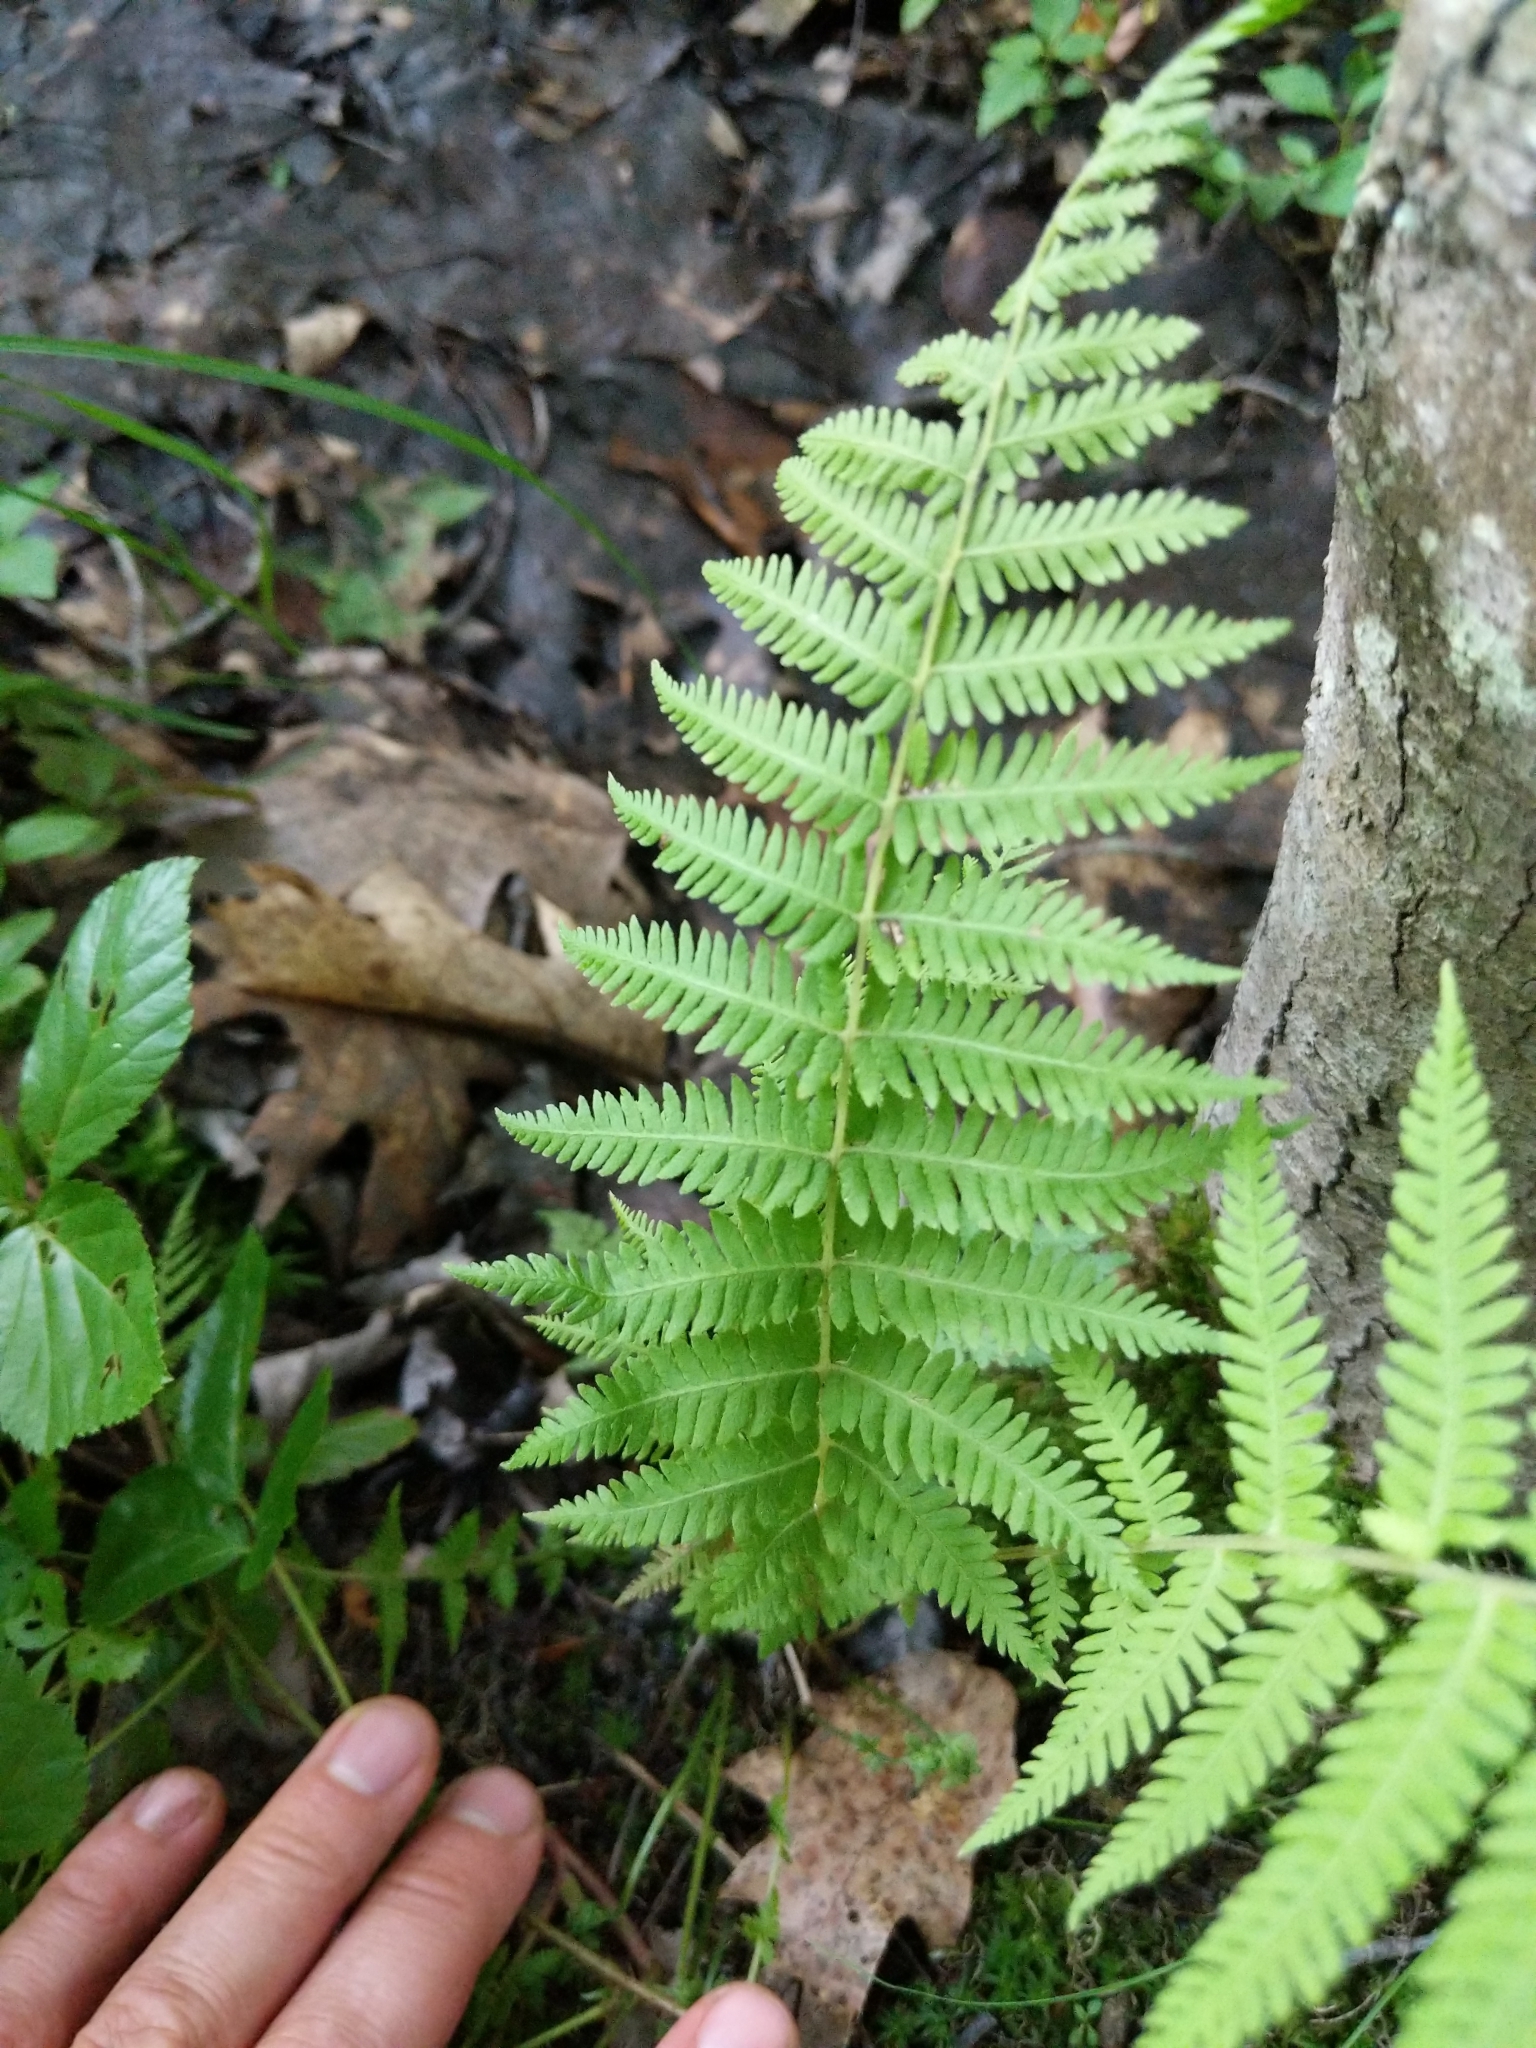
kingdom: Plantae
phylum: Tracheophyta
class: Polypodiopsida
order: Polypodiales
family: Thelypteridaceae
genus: Amauropelta
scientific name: Amauropelta noveboracensis
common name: New york fern
